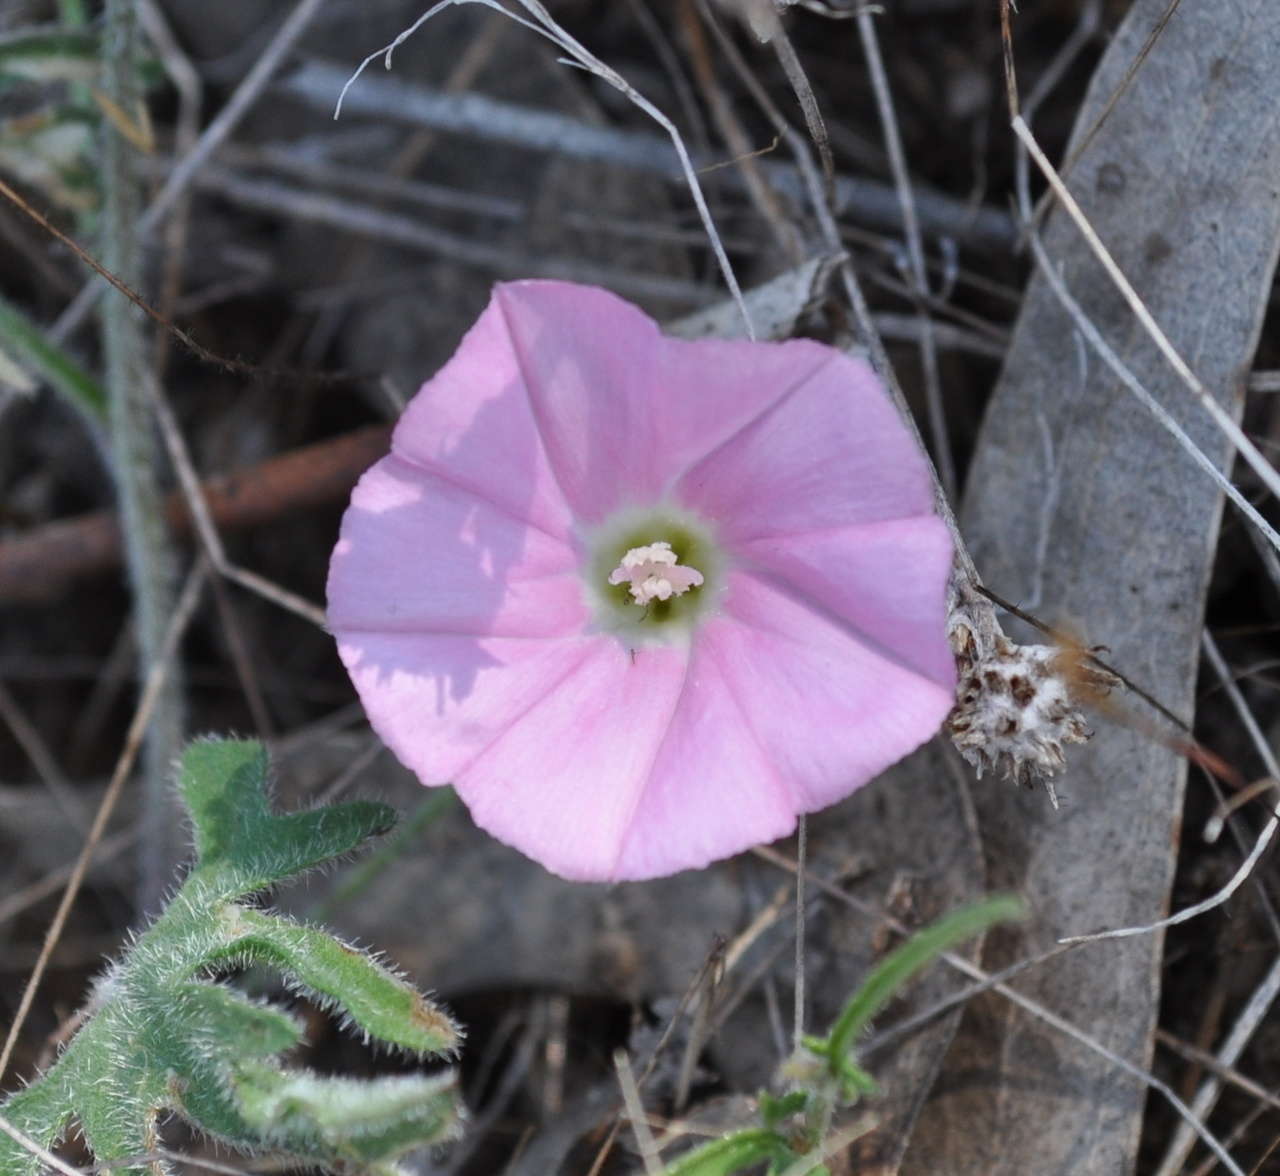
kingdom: Plantae
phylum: Tracheophyta
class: Magnoliopsida
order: Solanales
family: Convolvulaceae
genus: Convolvulus
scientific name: Convolvulus angustissimus
